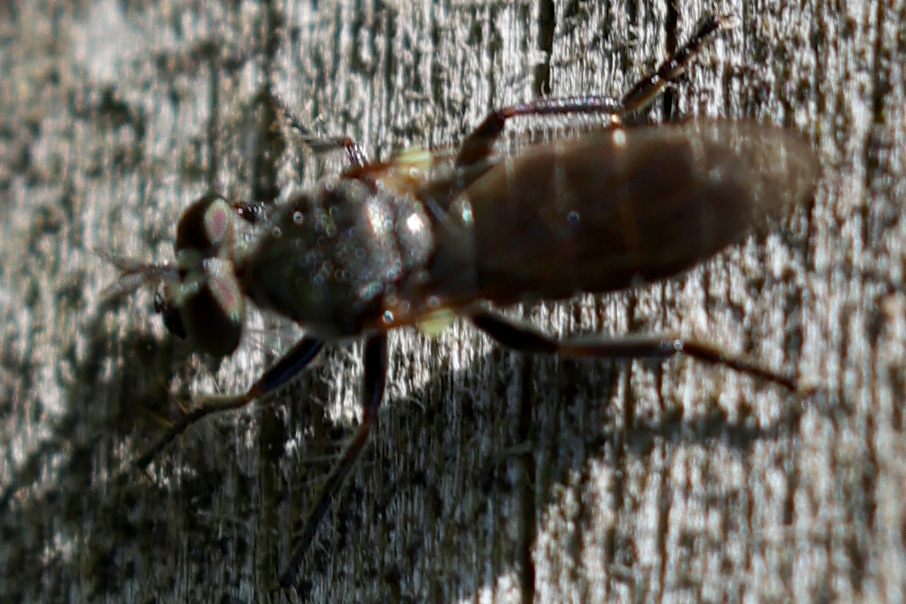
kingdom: Animalia
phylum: Arthropoda
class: Insecta
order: Diptera
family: Asilidae
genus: Atomosia
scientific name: Atomosia puella
